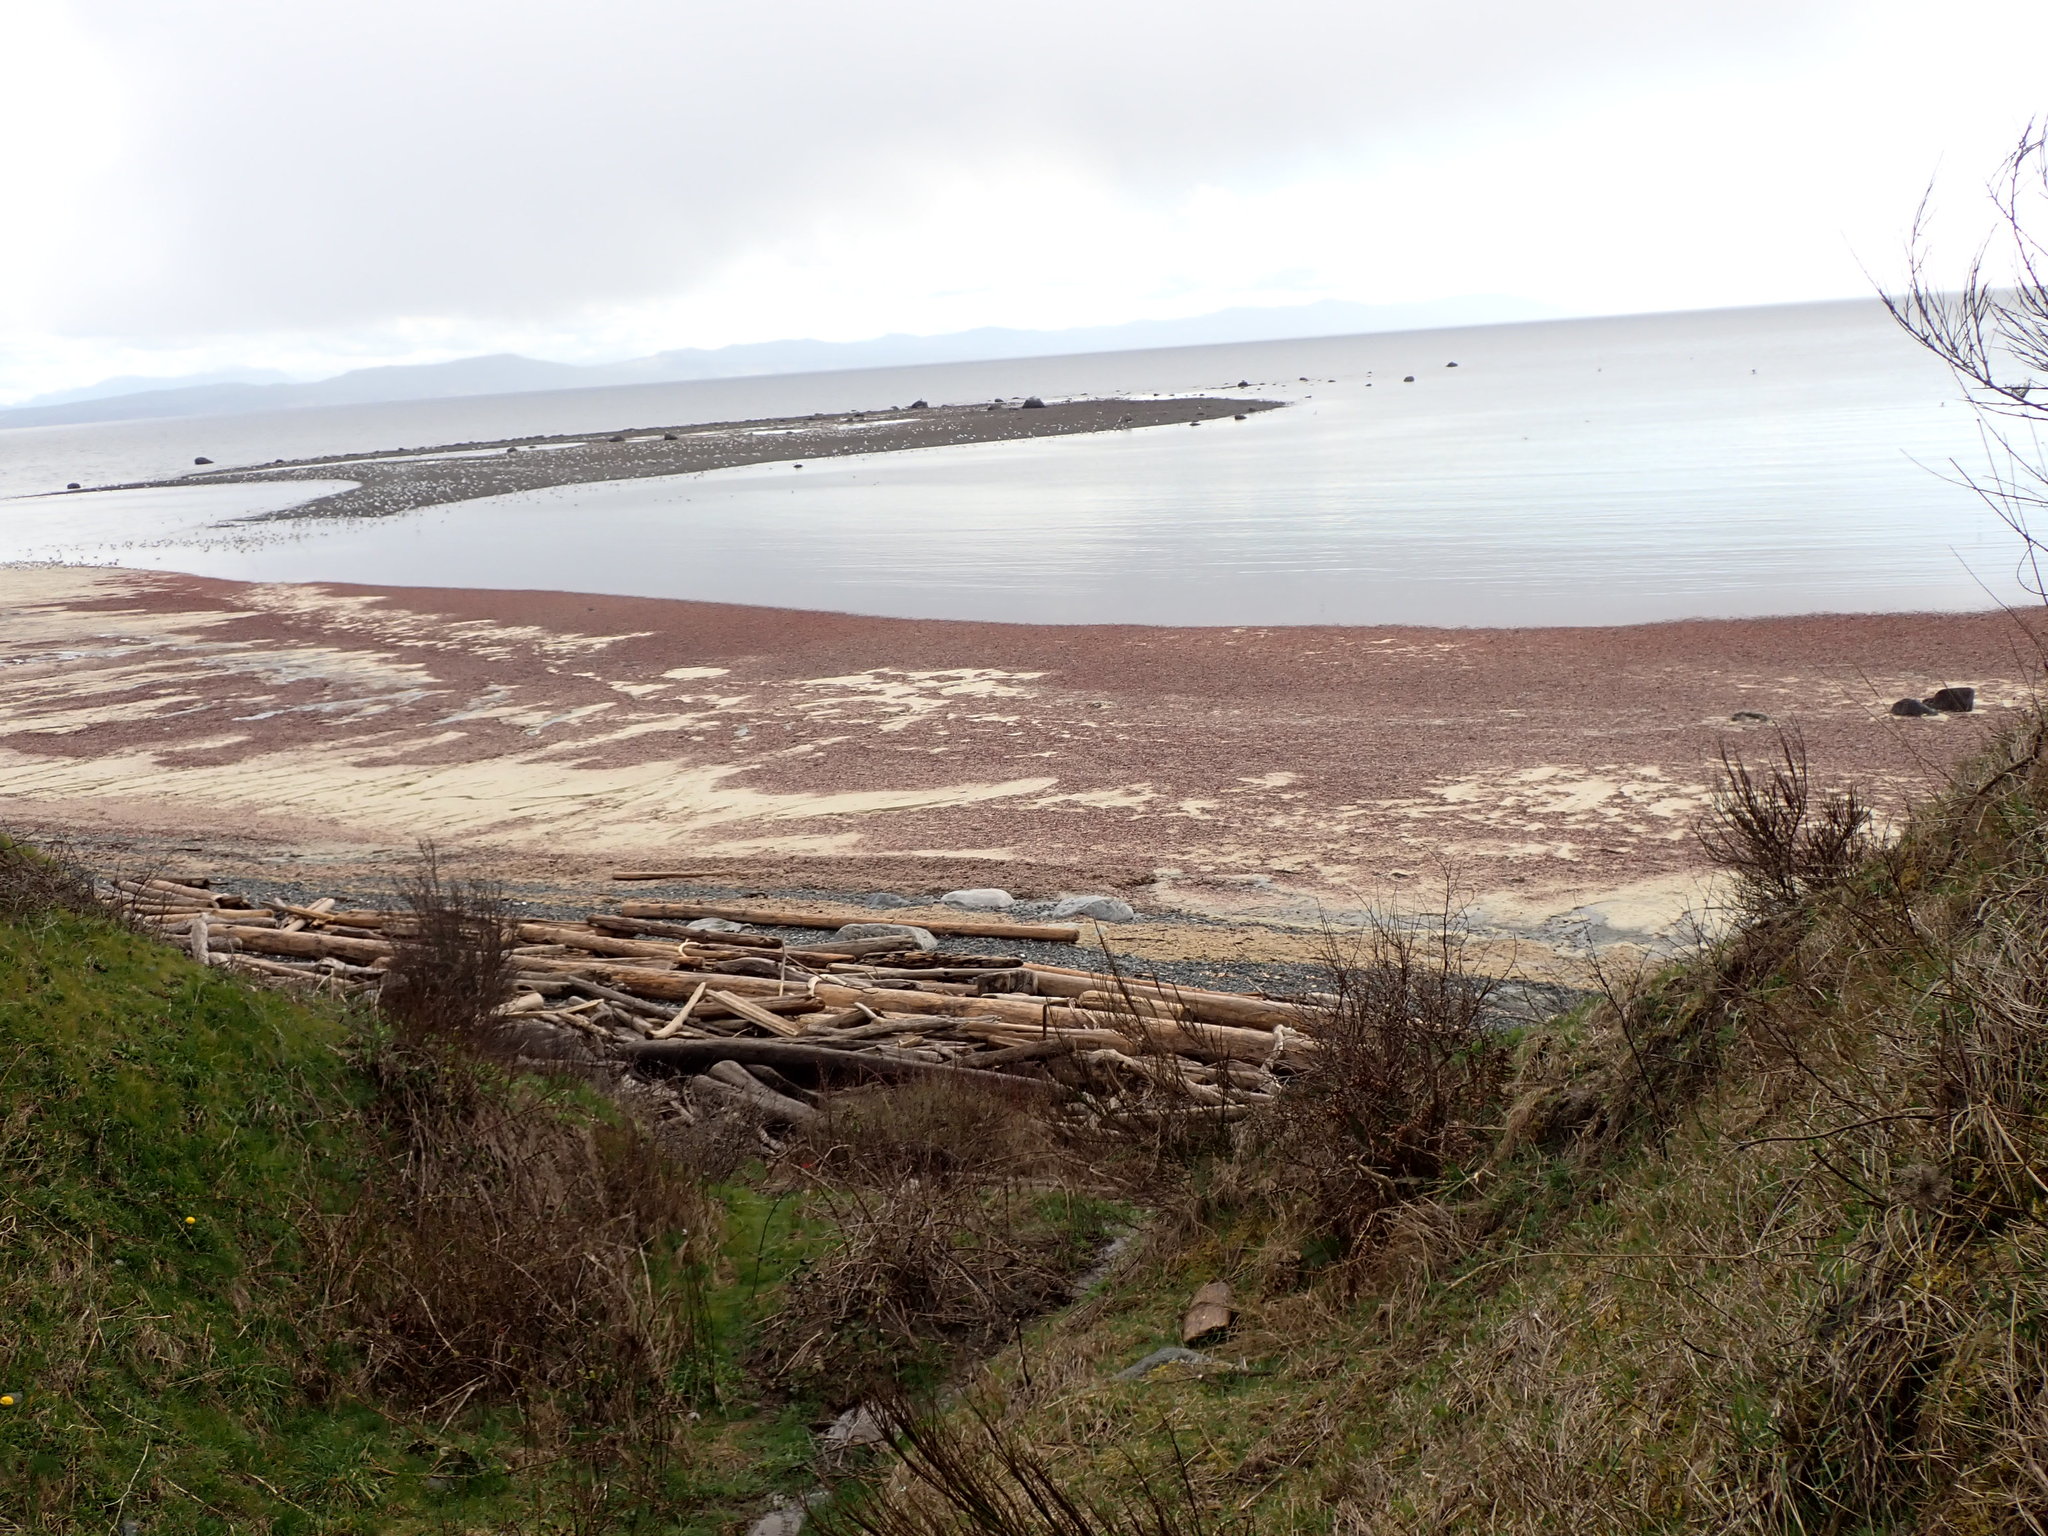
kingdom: Animalia
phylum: Chordata
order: Clupeiformes
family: Clupeidae
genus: Clupea
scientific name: Clupea pallasii
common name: Pacific herring
